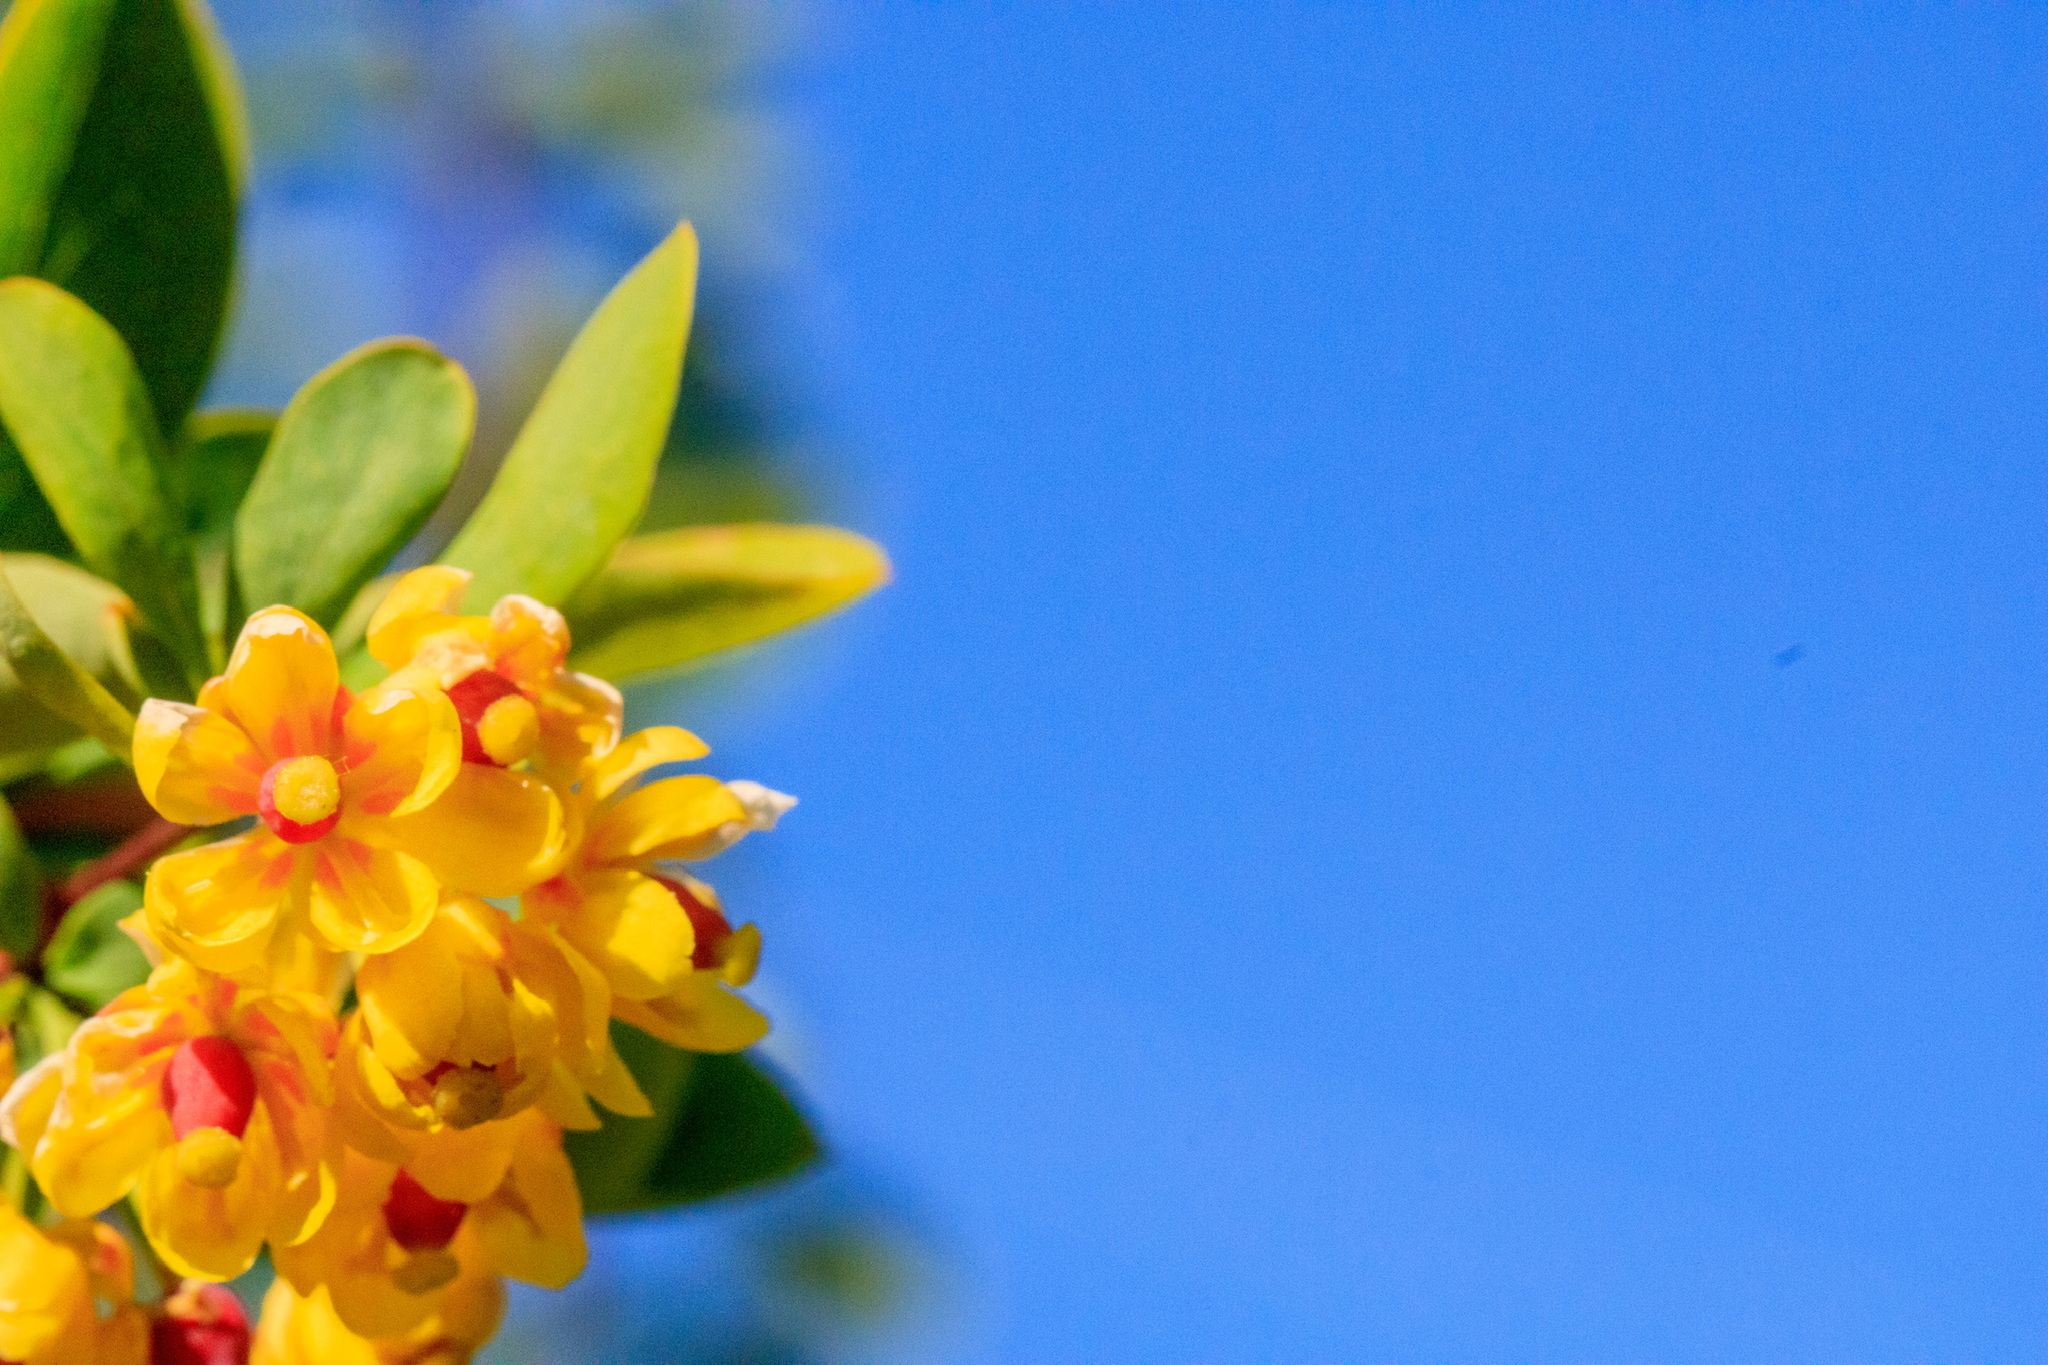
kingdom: Plantae
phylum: Tracheophyta
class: Magnoliopsida
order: Ranunculales
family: Berberidaceae
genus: Berberis
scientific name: Berberis heteropoda
